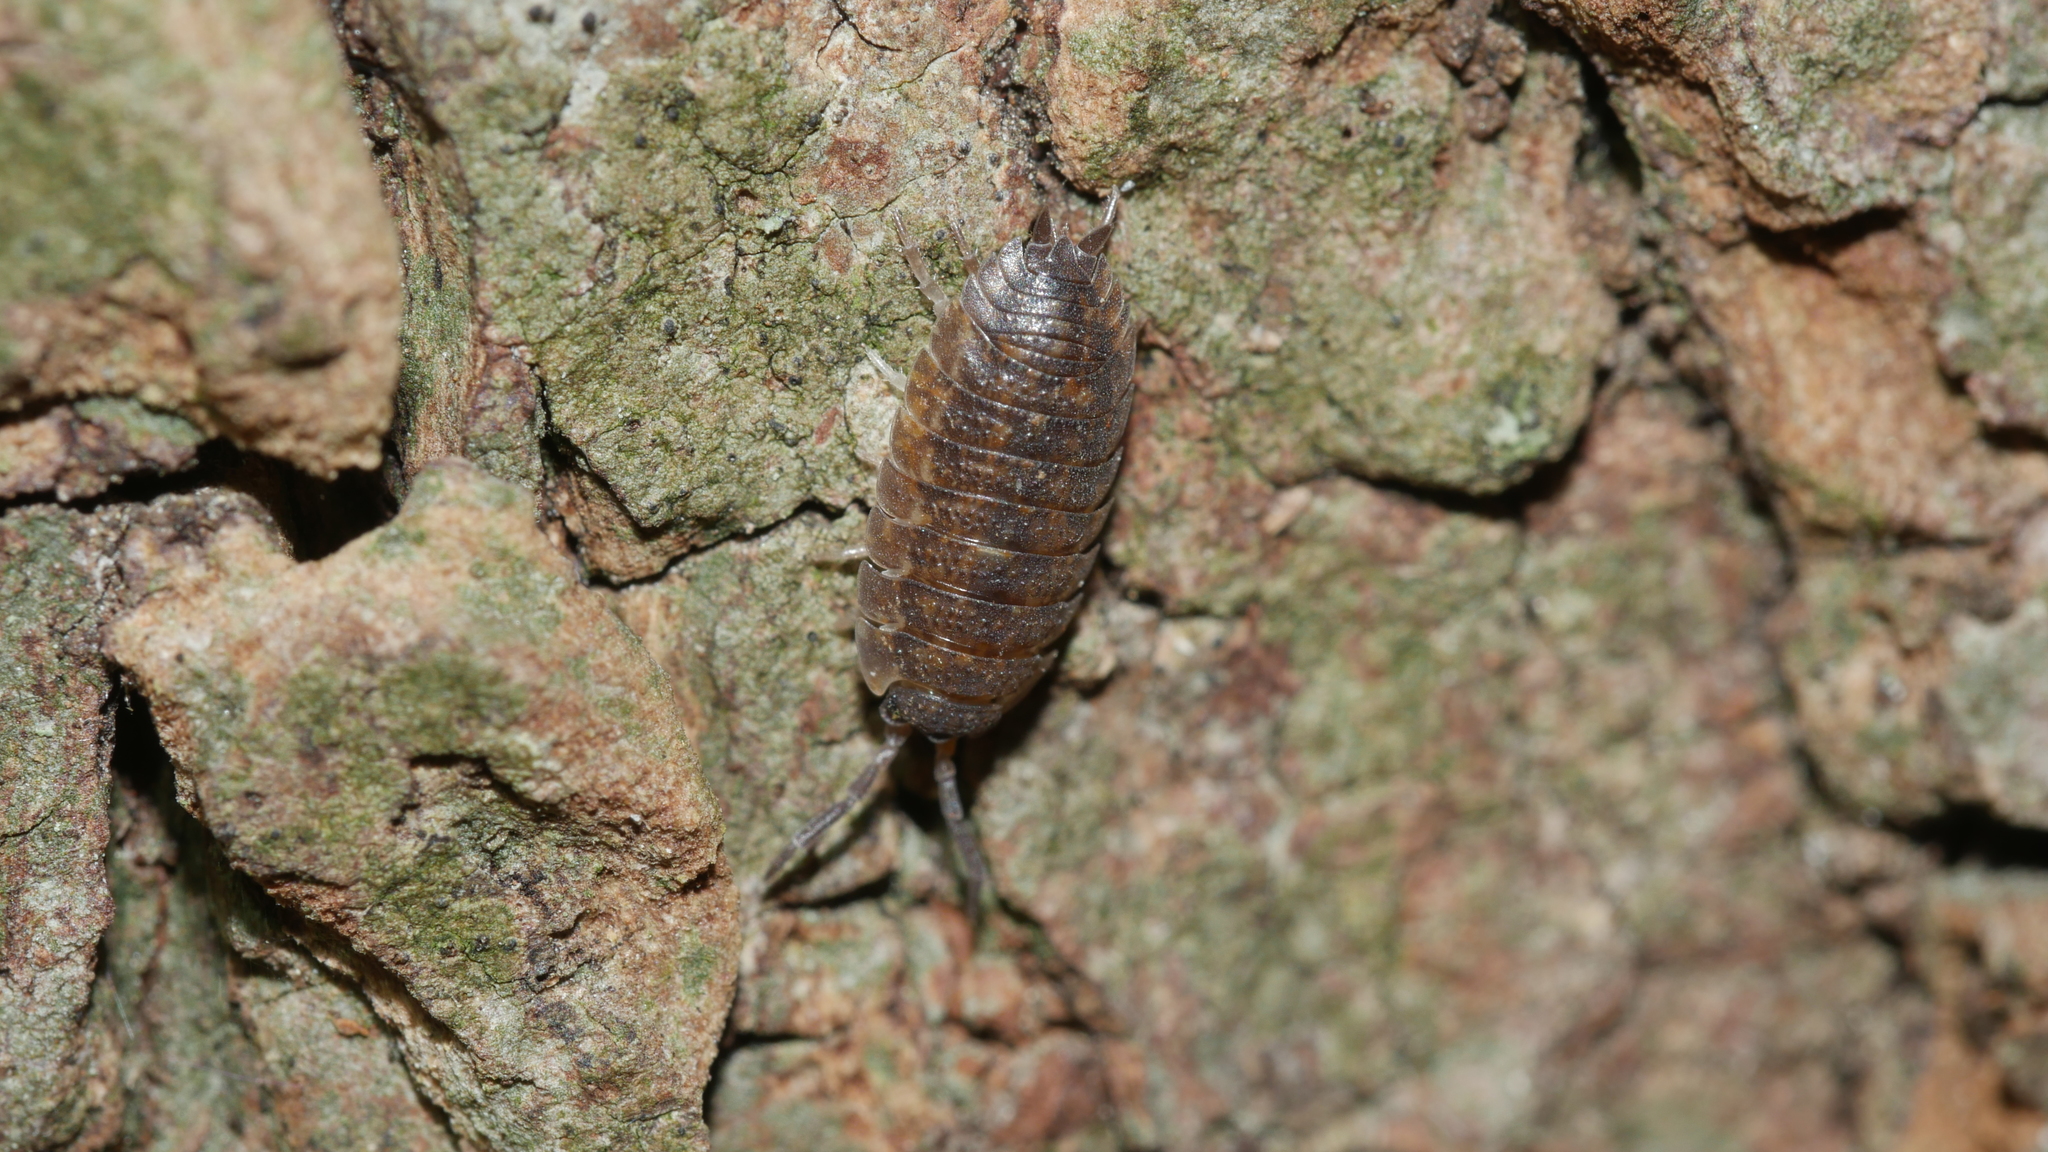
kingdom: Animalia
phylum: Arthropoda
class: Malacostraca
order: Isopoda
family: Porcellionidae
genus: Porcellio
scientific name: Porcellio scaber
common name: Common rough woodlouse
